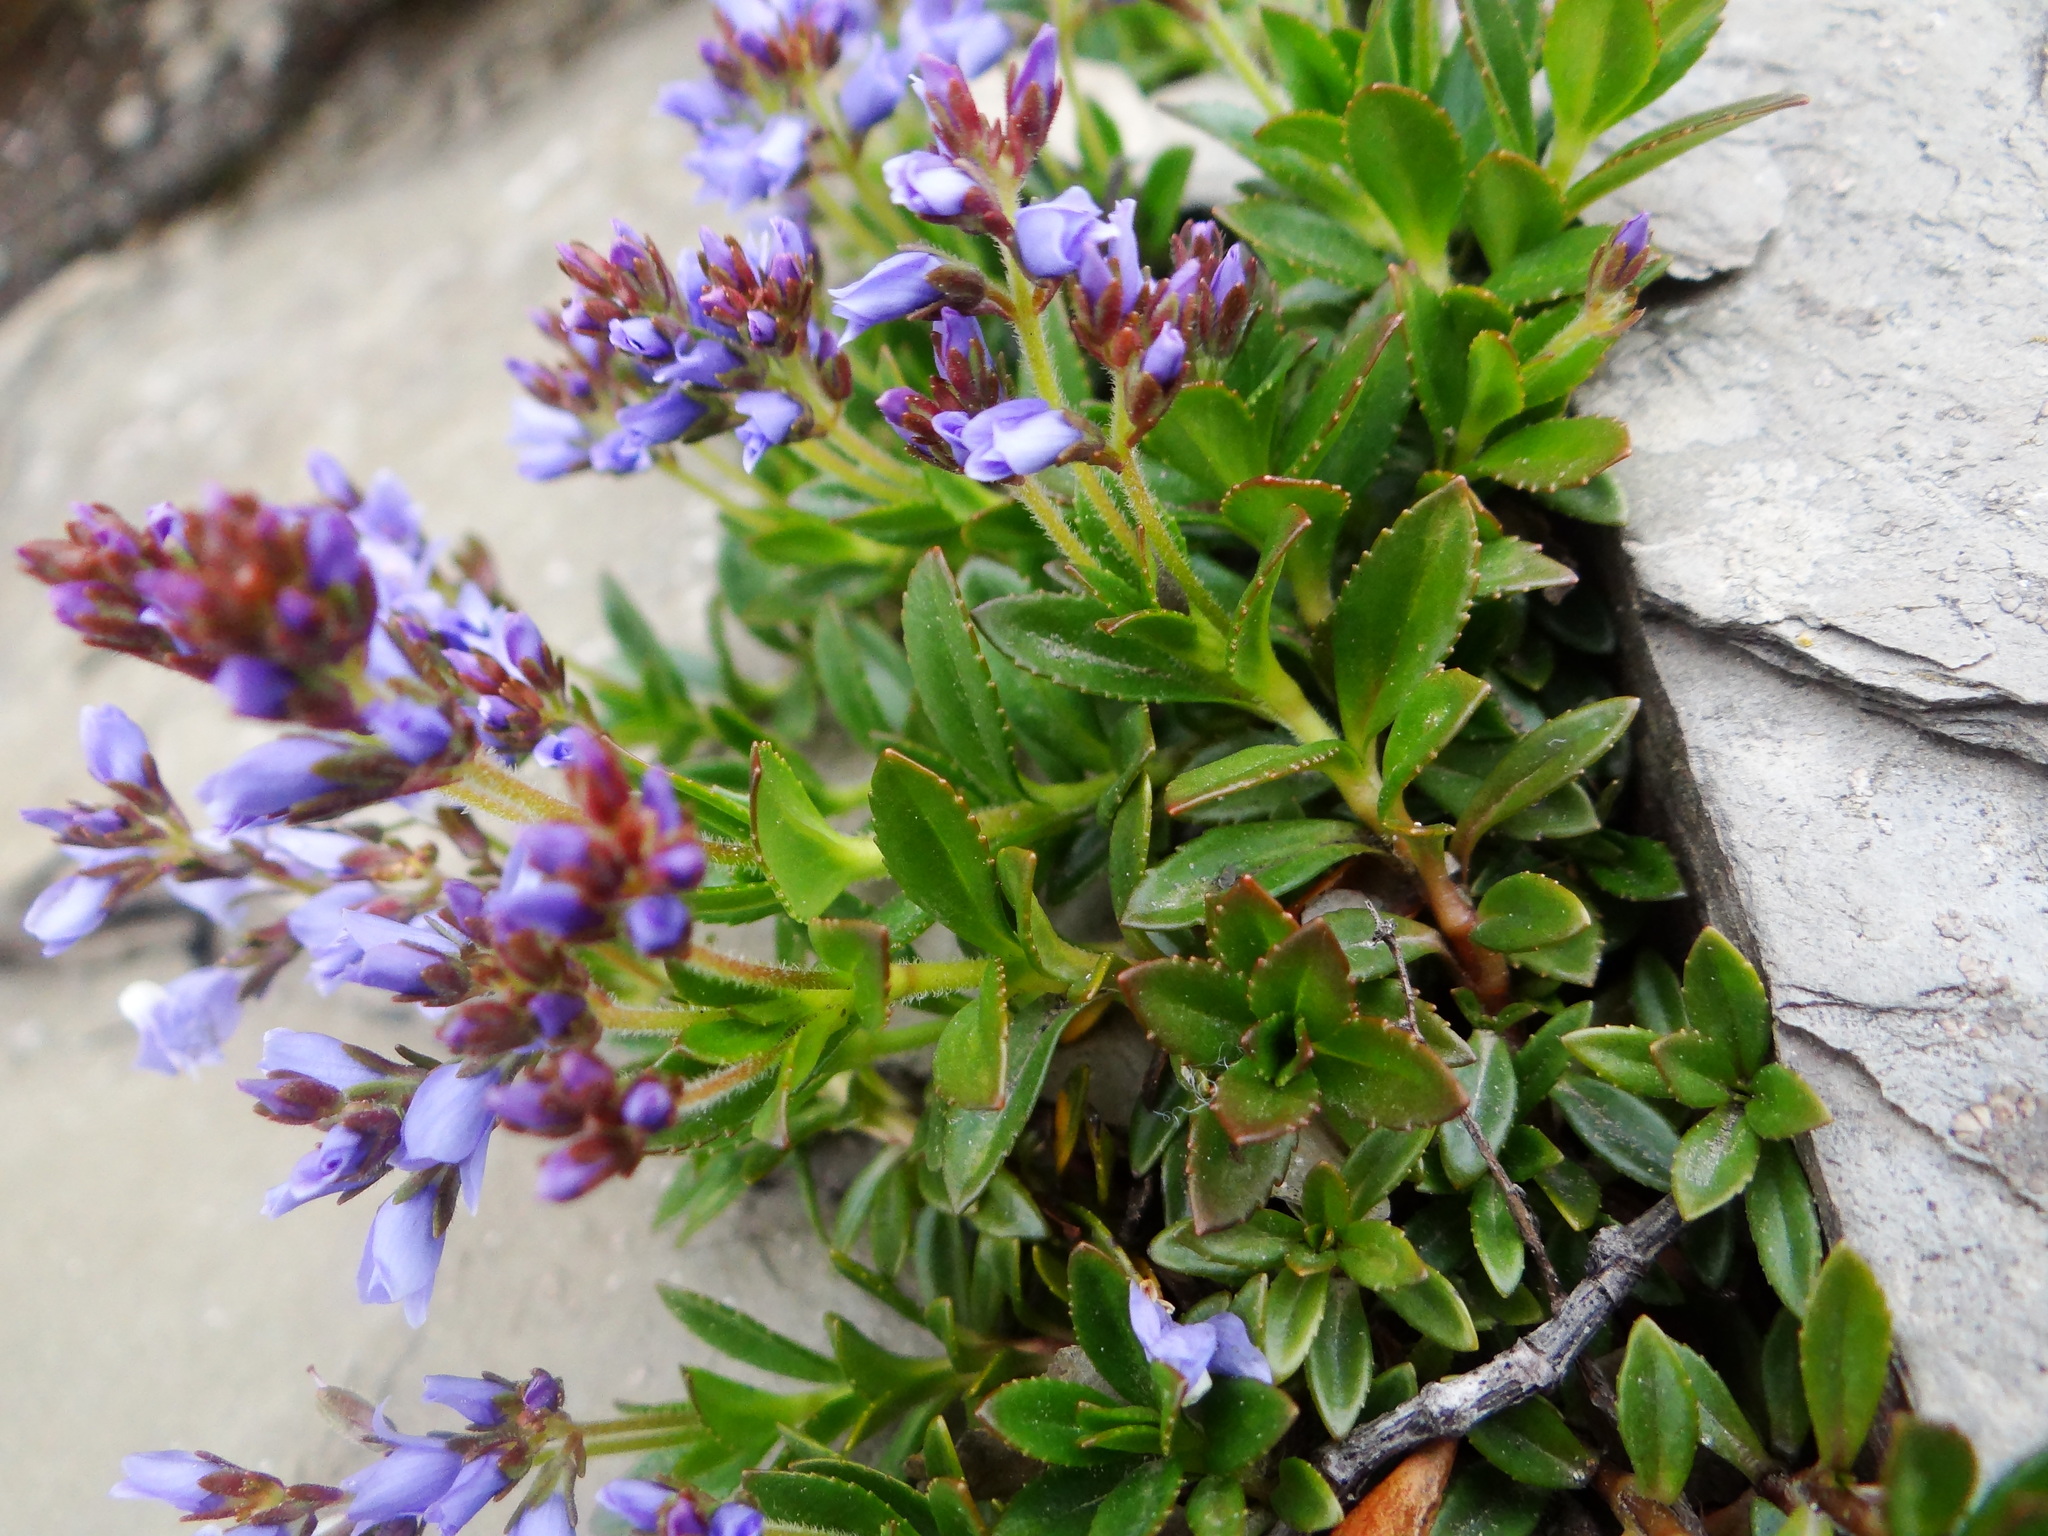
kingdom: Plantae
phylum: Tracheophyta
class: Magnoliopsida
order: Lamiales
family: Plantaginaceae
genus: Veronica
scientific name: Veronica morrisonicola
